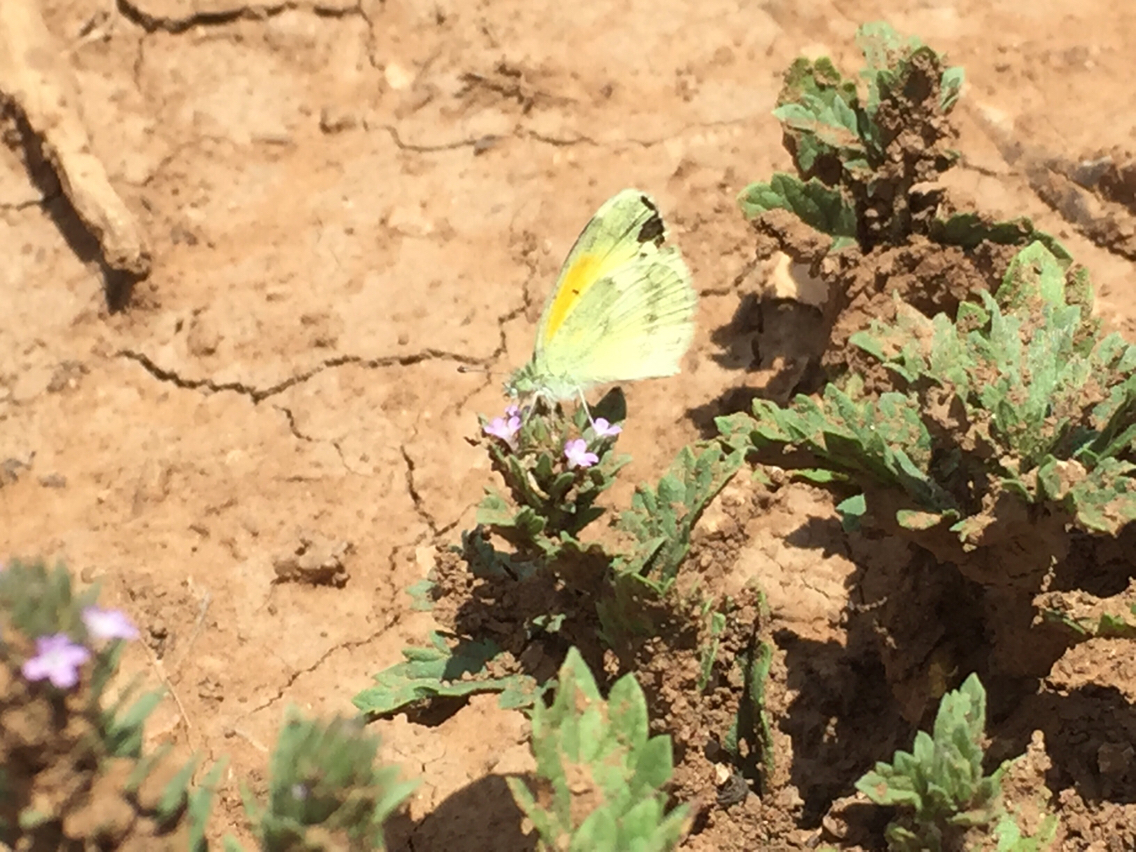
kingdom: Animalia
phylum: Arthropoda
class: Insecta
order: Lepidoptera
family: Pieridae
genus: Nathalis
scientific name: Nathalis iole
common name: Dainty sulphur
